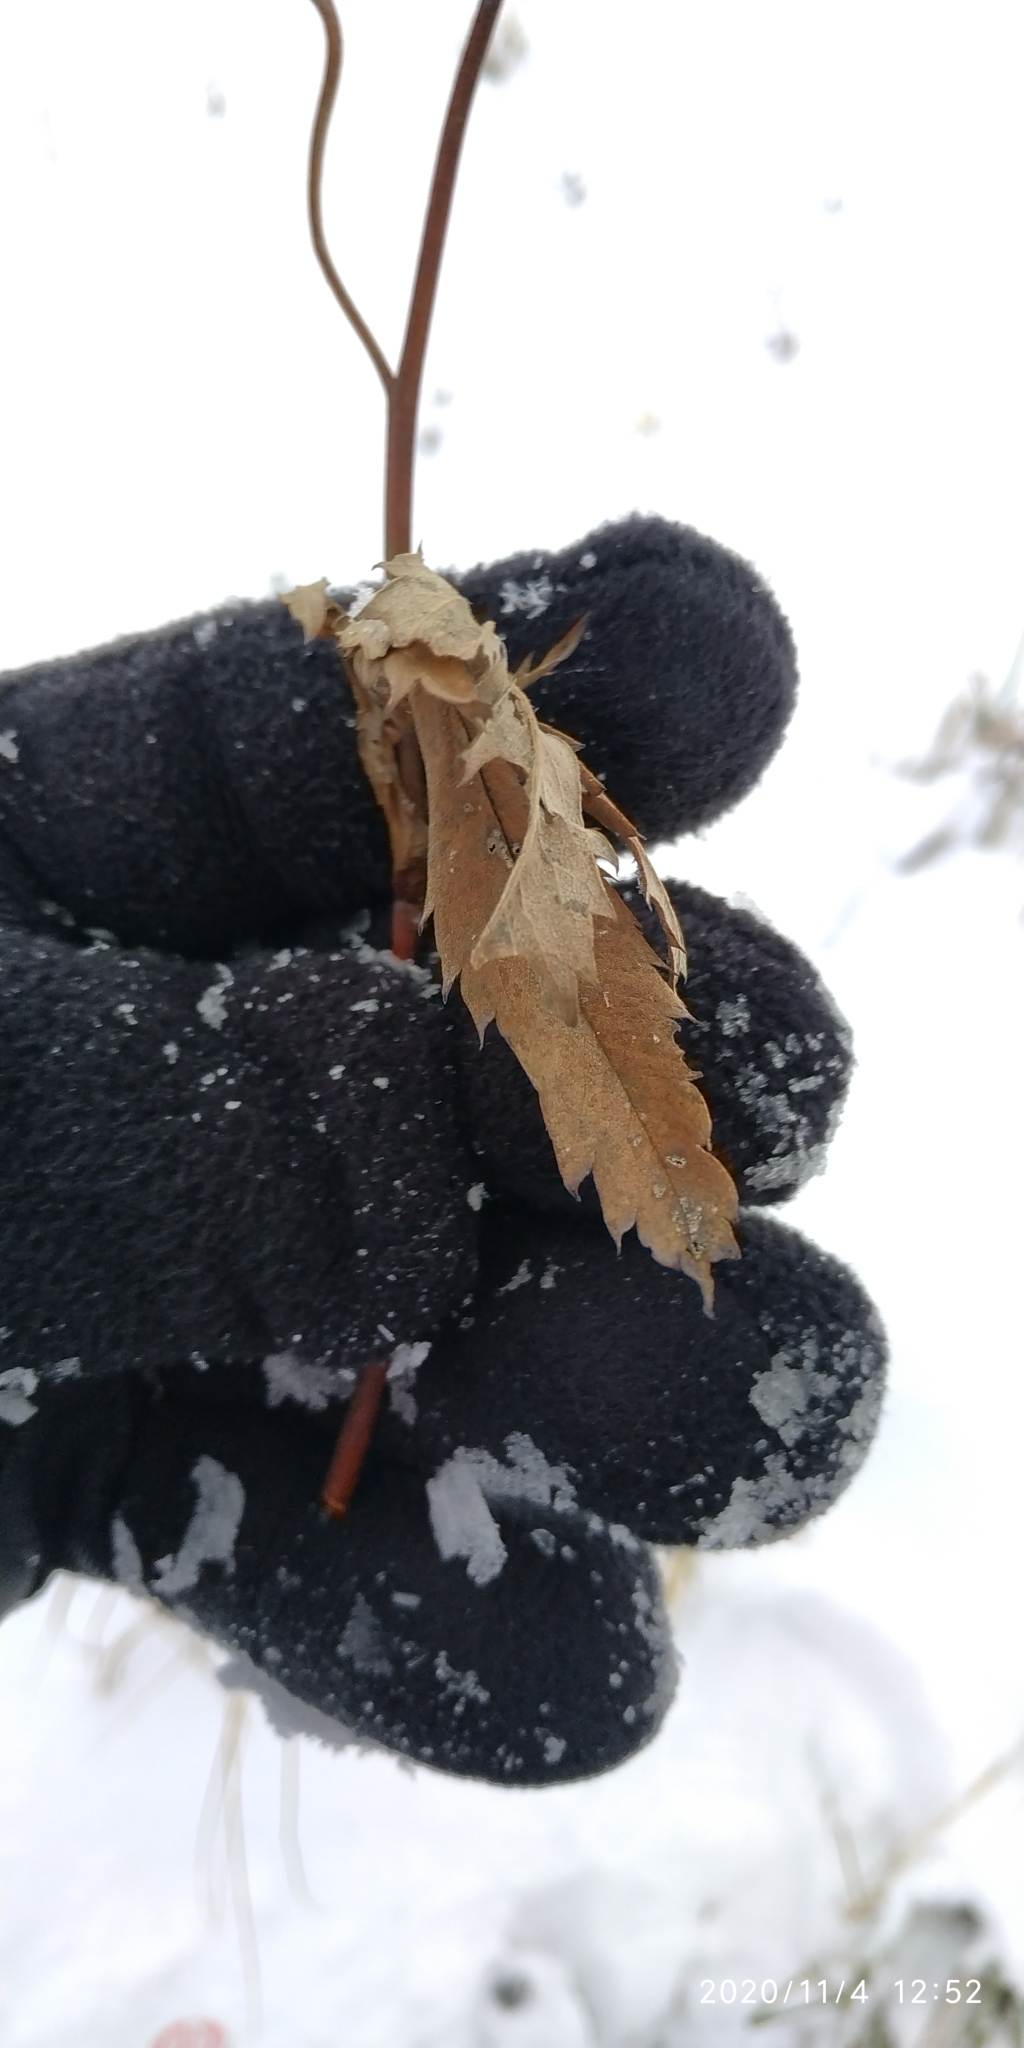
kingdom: Plantae
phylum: Tracheophyta
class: Magnoliopsida
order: Rosales
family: Rosaceae
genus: Comarum
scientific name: Comarum palustre
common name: Marsh cinquefoil
